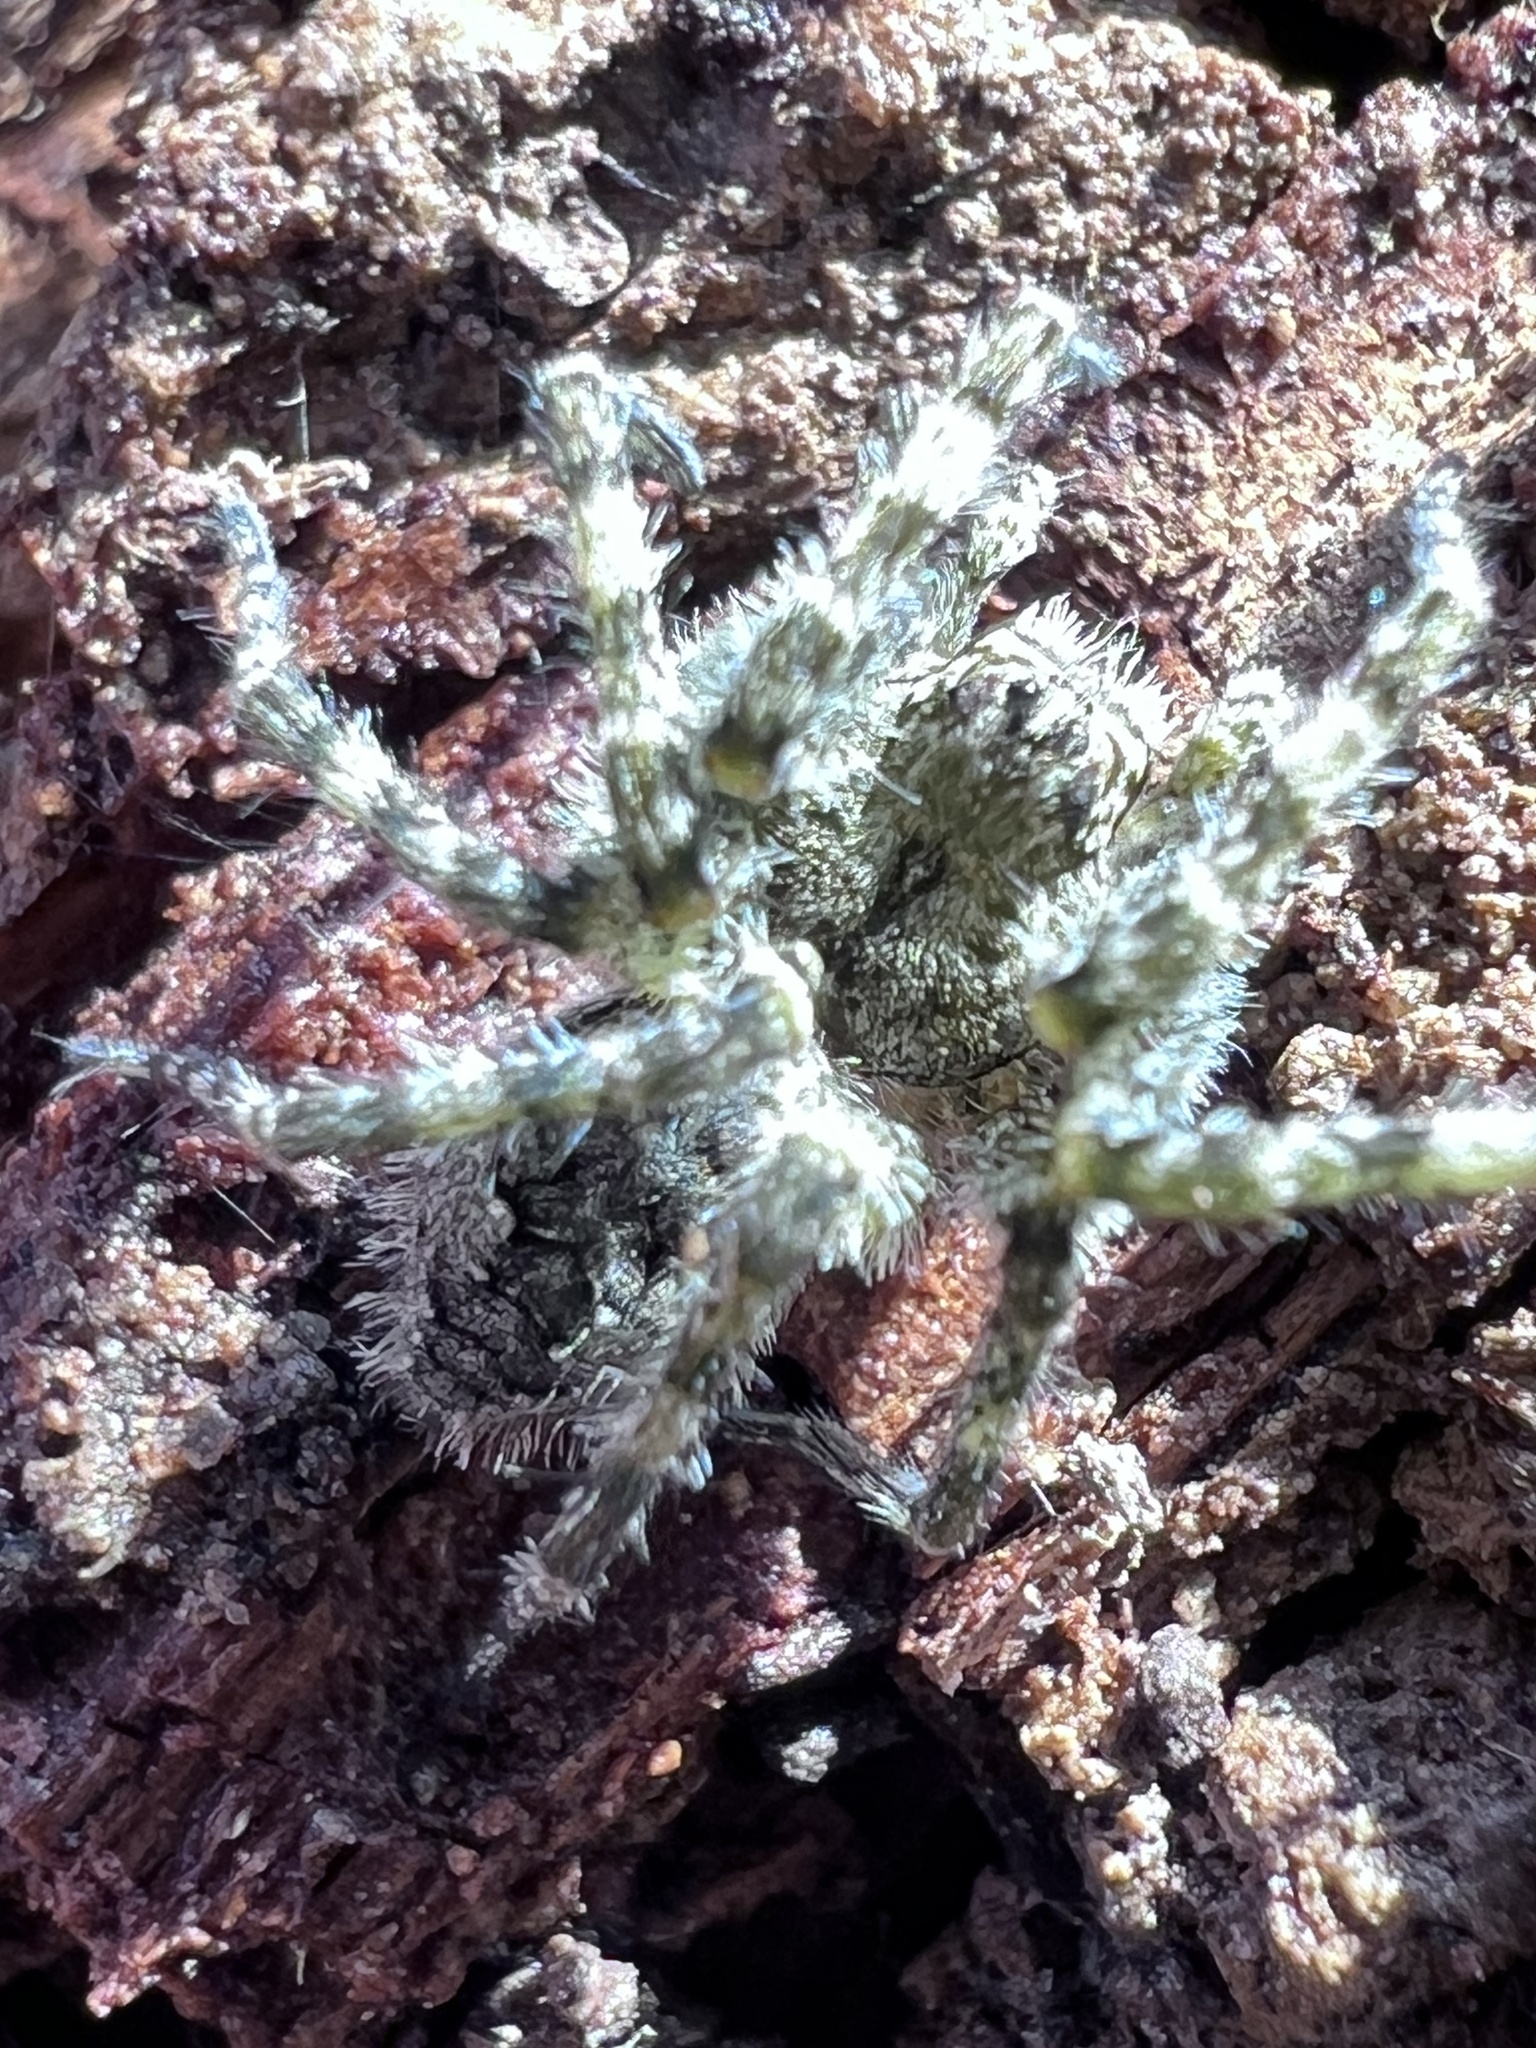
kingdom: Animalia
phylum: Arthropoda
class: Arachnida
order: Araneae
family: Pisauridae
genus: Dolomedes
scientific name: Dolomedes albineus
